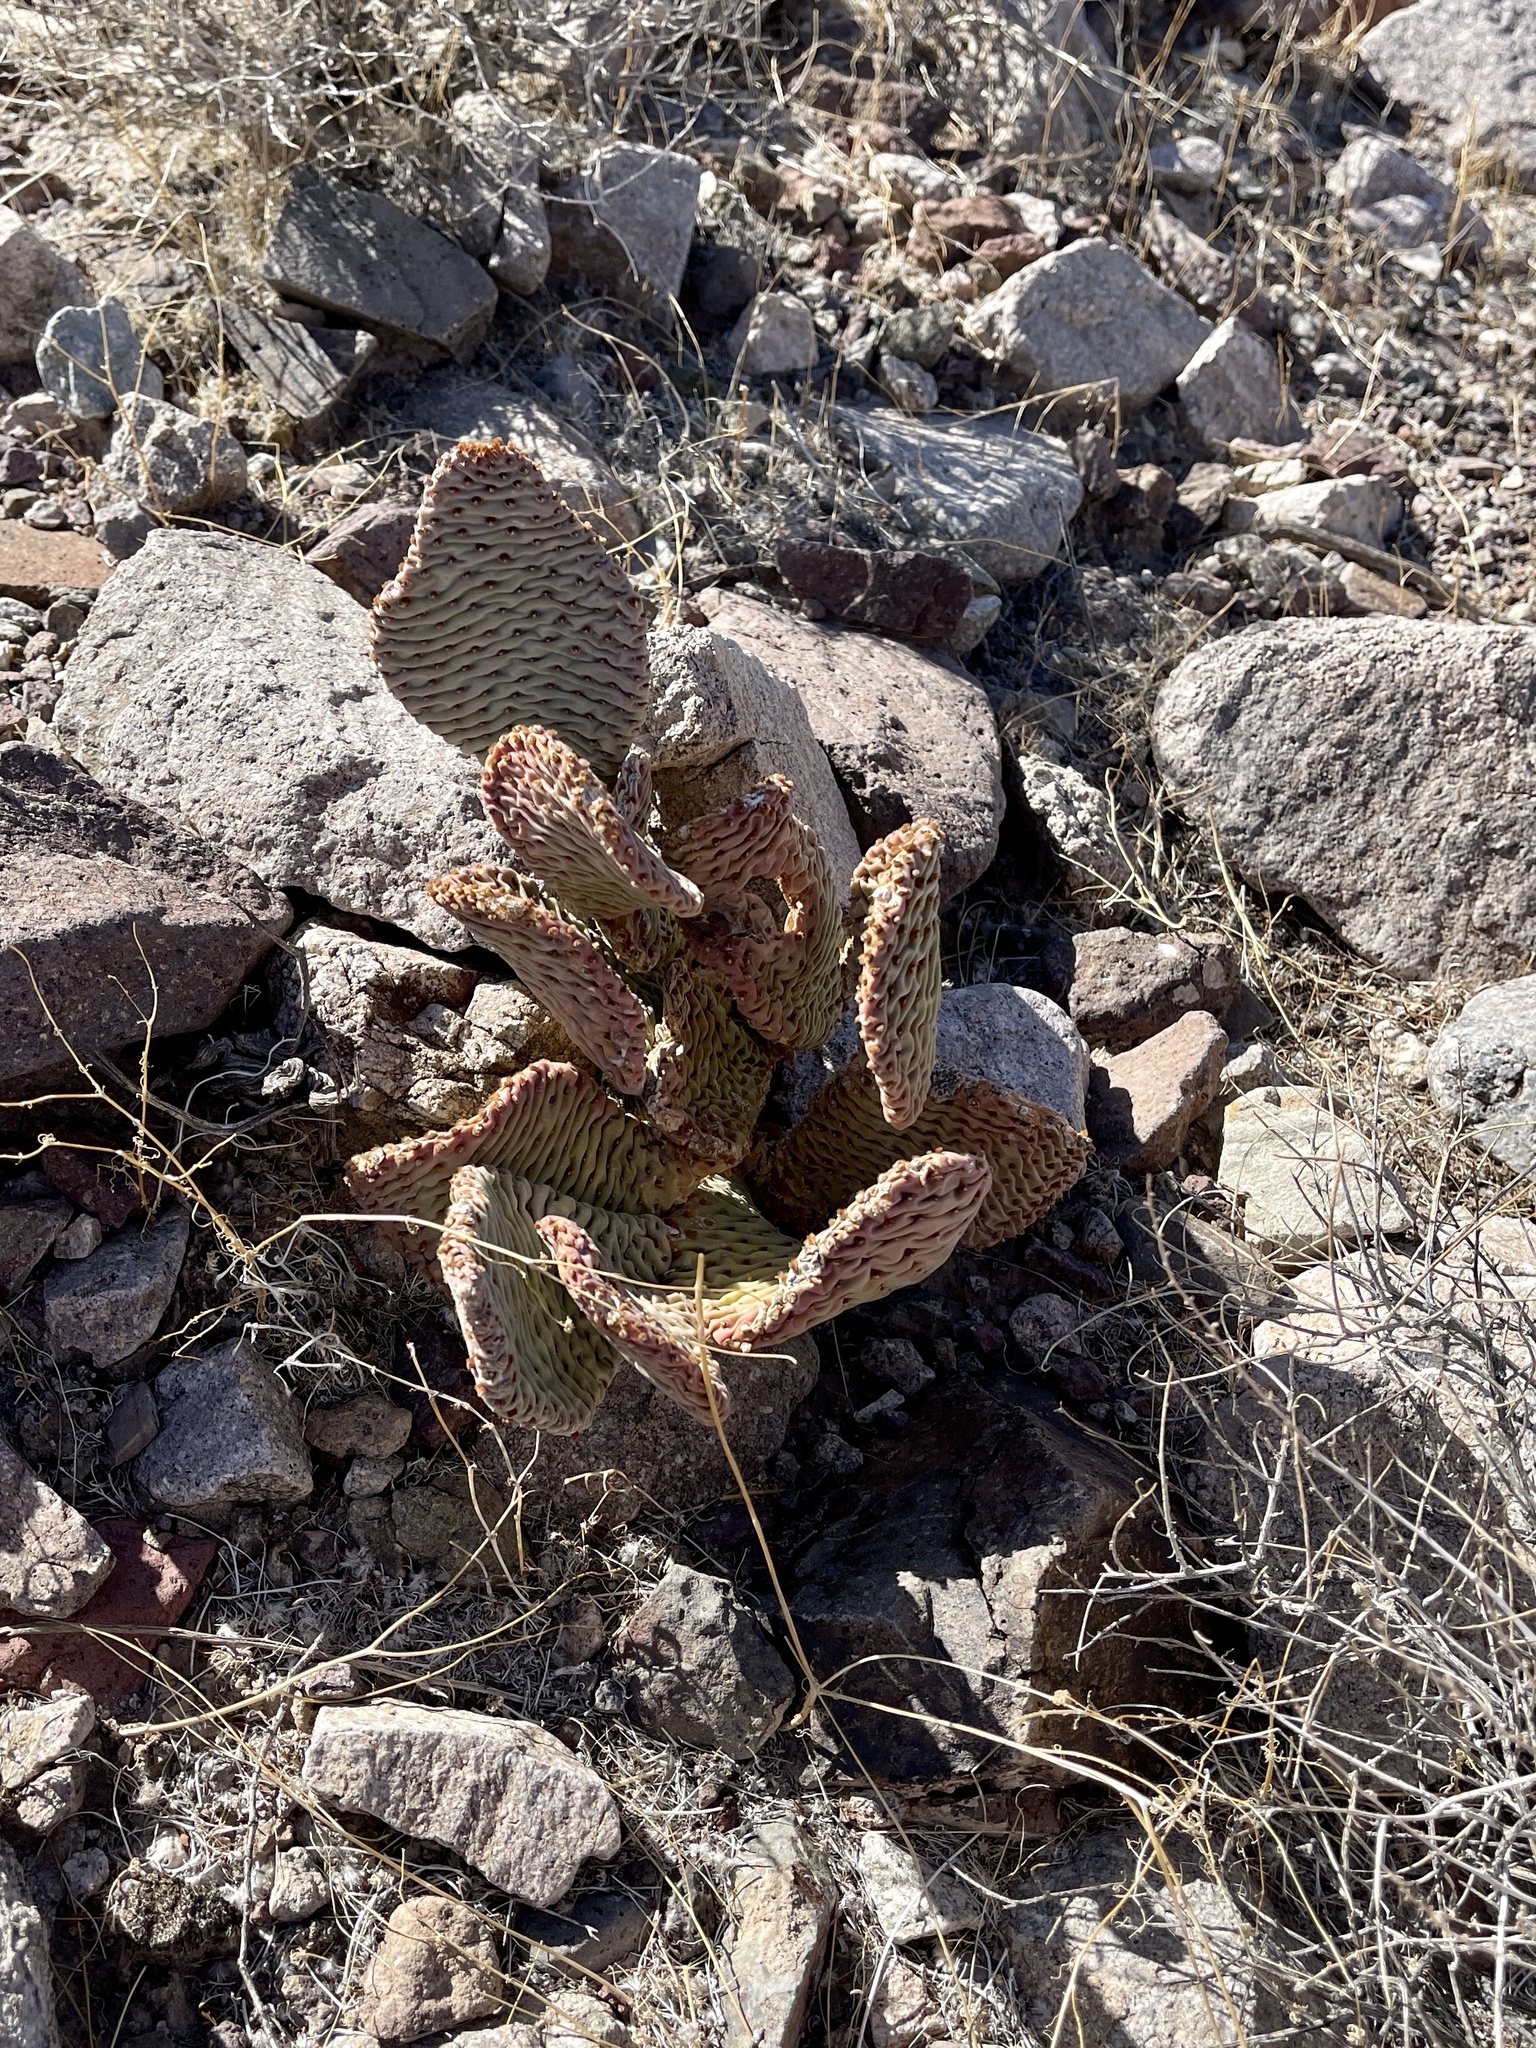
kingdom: Plantae
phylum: Tracheophyta
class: Magnoliopsida
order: Caryophyllales
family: Cactaceae
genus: Opuntia
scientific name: Opuntia basilaris
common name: Beavertail prickly-pear
